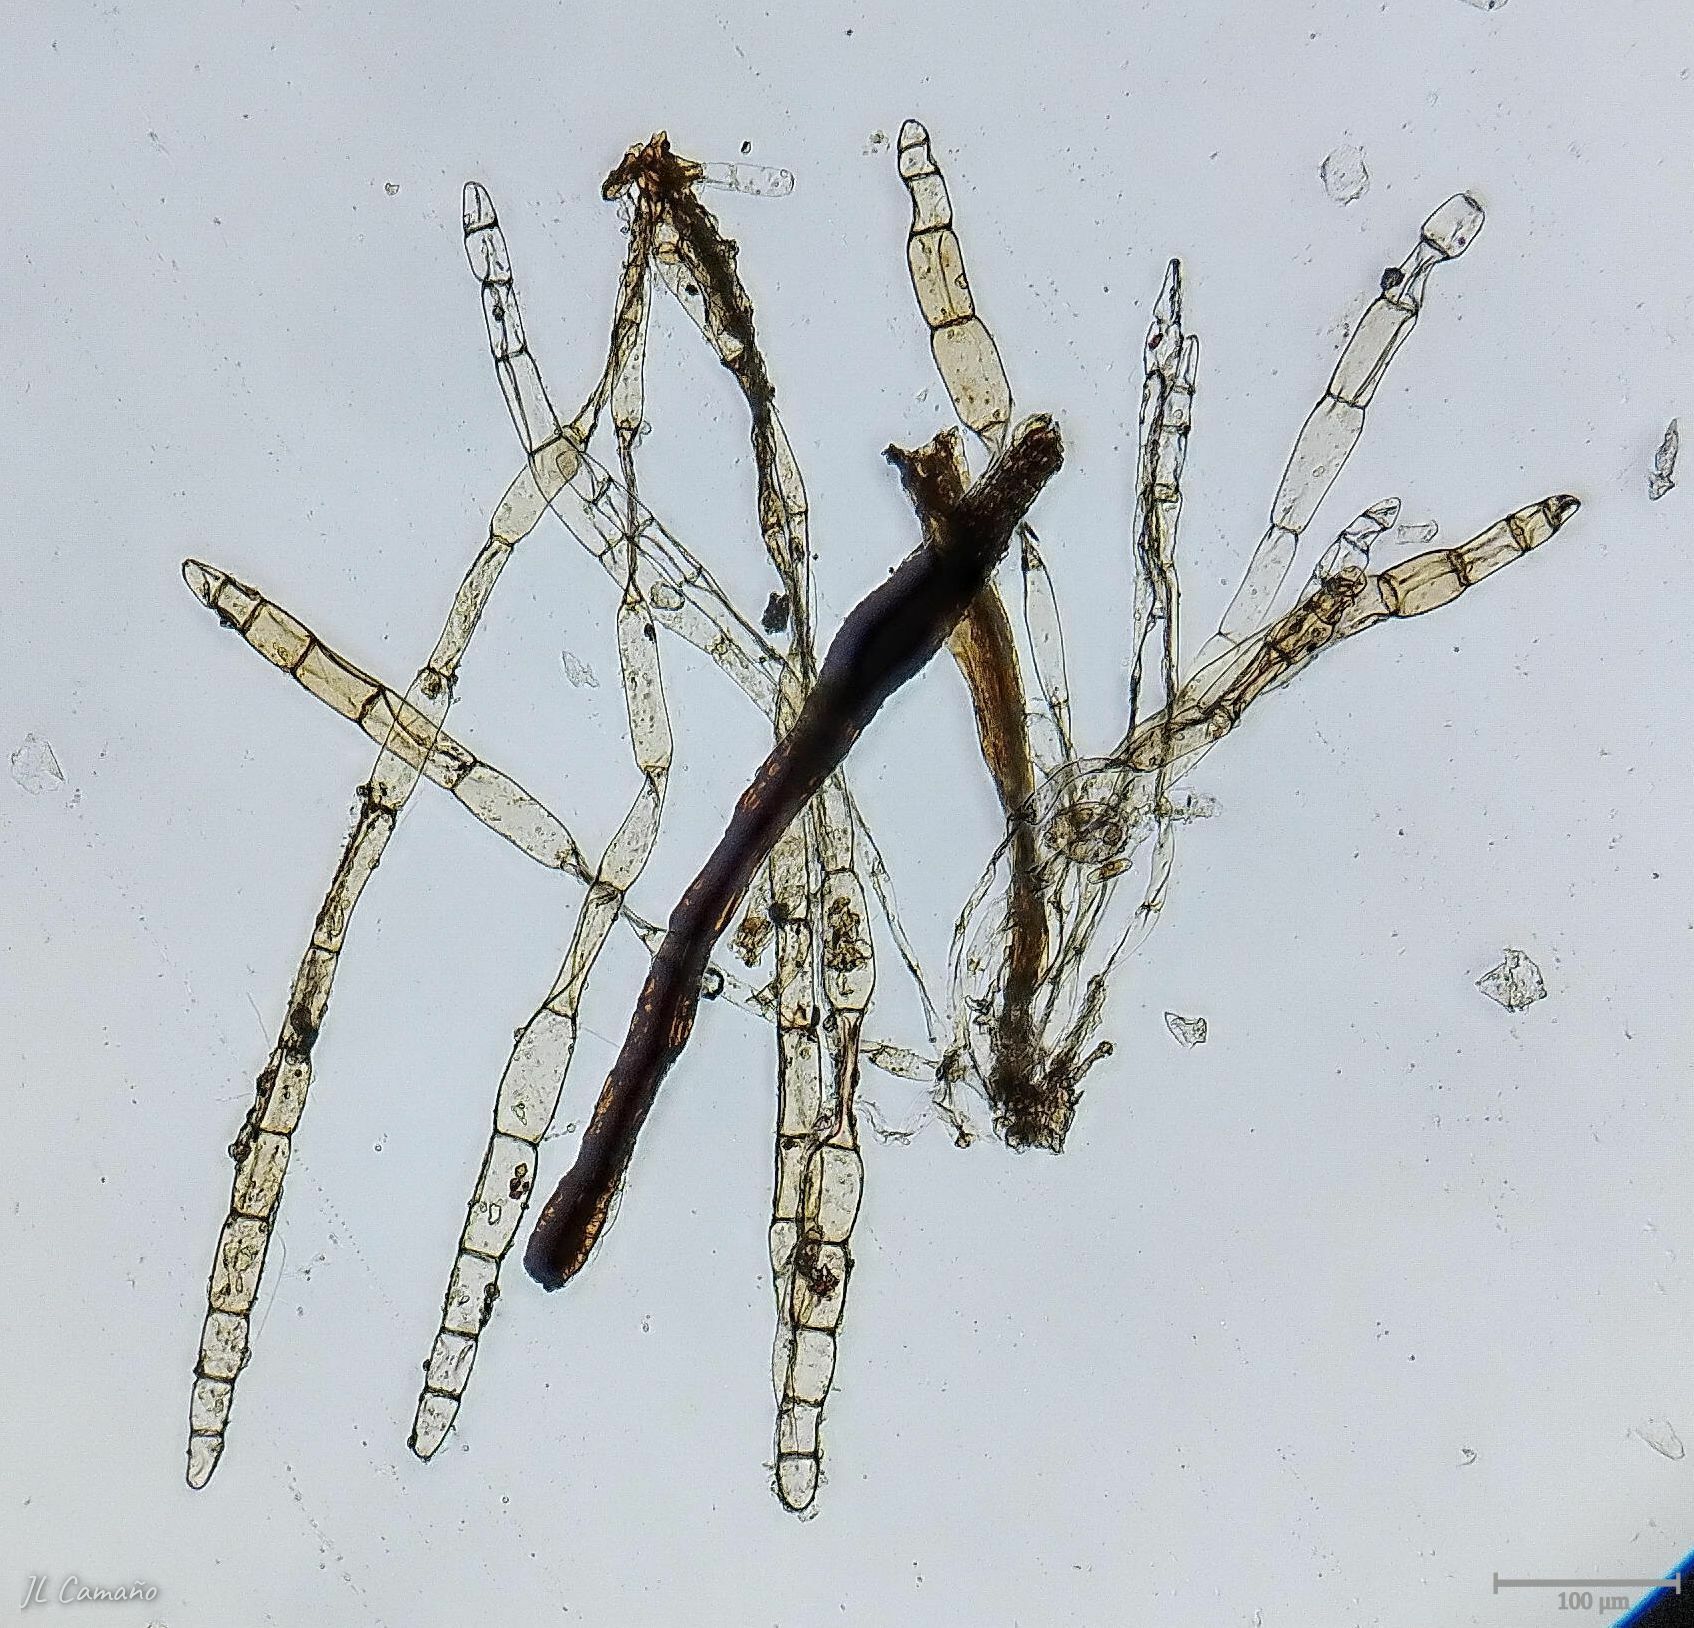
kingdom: Plantae
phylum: Bryophyta
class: Bryopsida
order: Pottiales
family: Pottiaceae
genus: Syntrichia
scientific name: Syntrichia princeps
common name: Brown screw-moss
